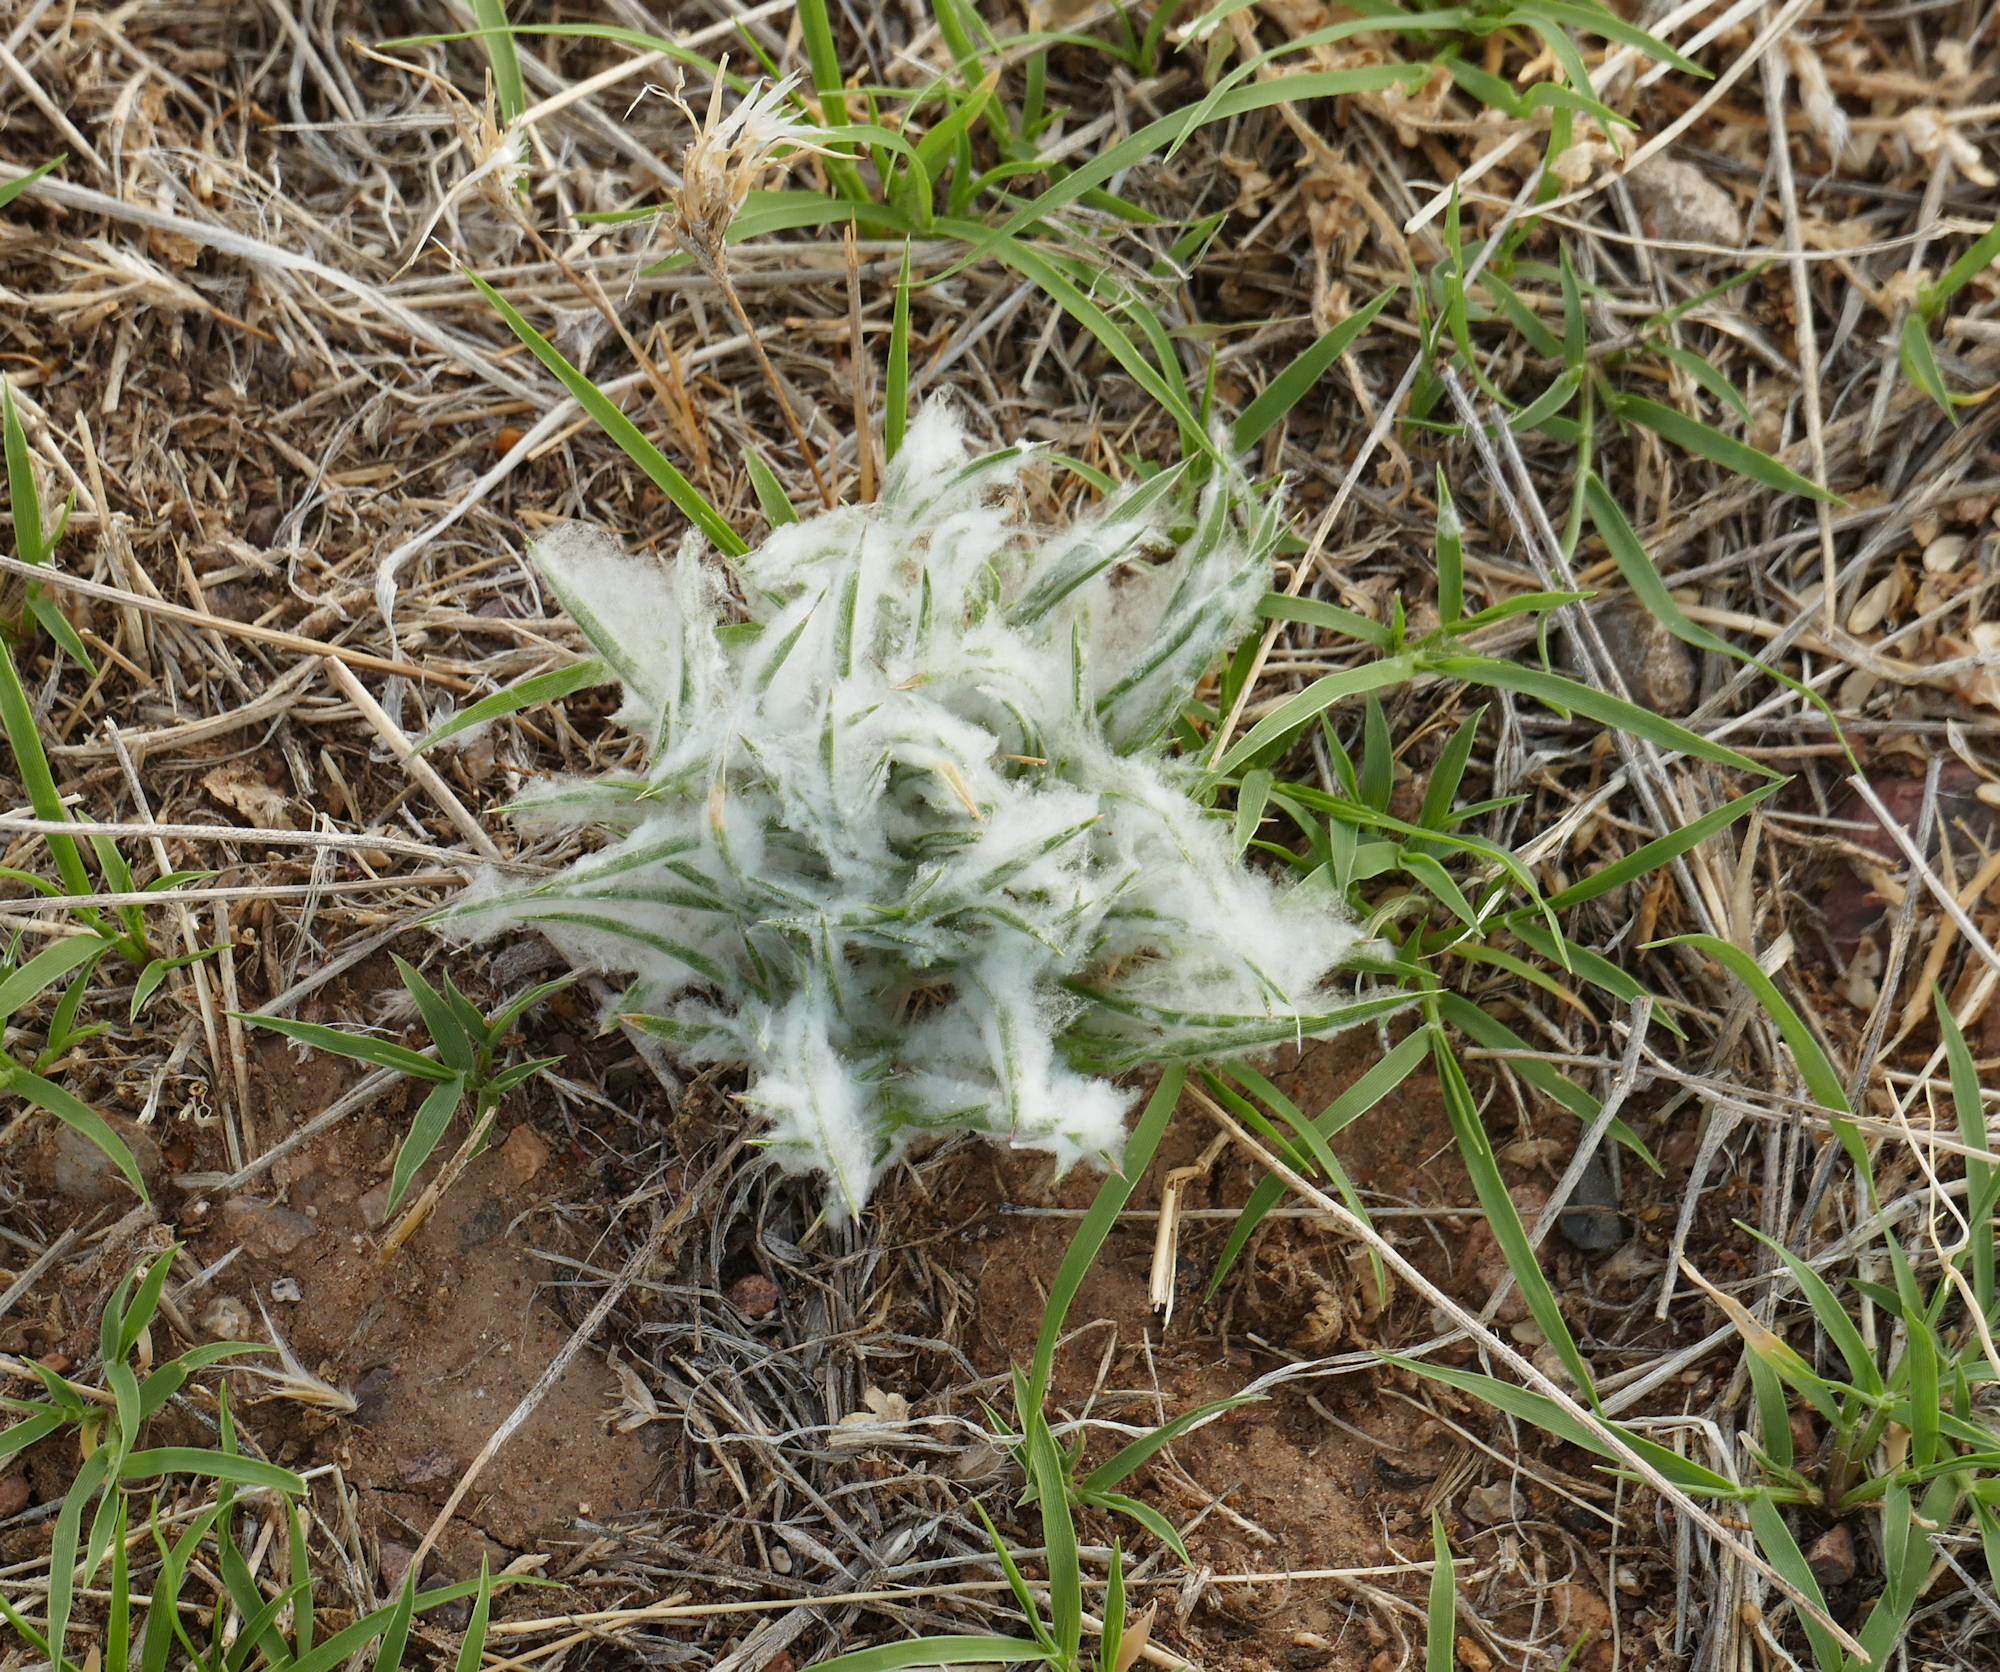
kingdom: Plantae
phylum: Tracheophyta
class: Liliopsida
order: Poales
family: Poaceae
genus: Munroa
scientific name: Munroa squarrosa
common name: False buffalo grass
